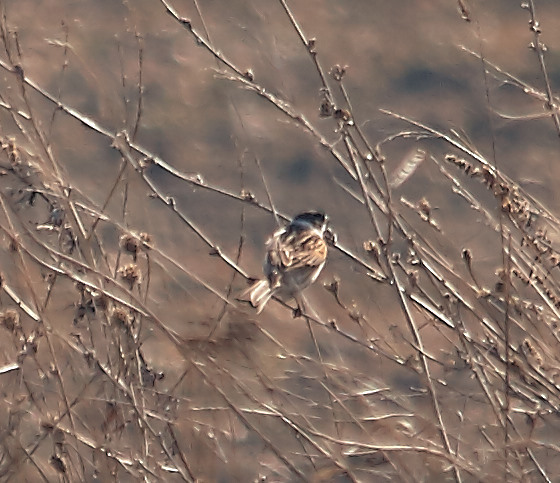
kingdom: Animalia
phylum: Chordata
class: Aves
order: Passeriformes
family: Emberizidae
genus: Emberiza
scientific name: Emberiza schoeniclus
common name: Reed bunting
